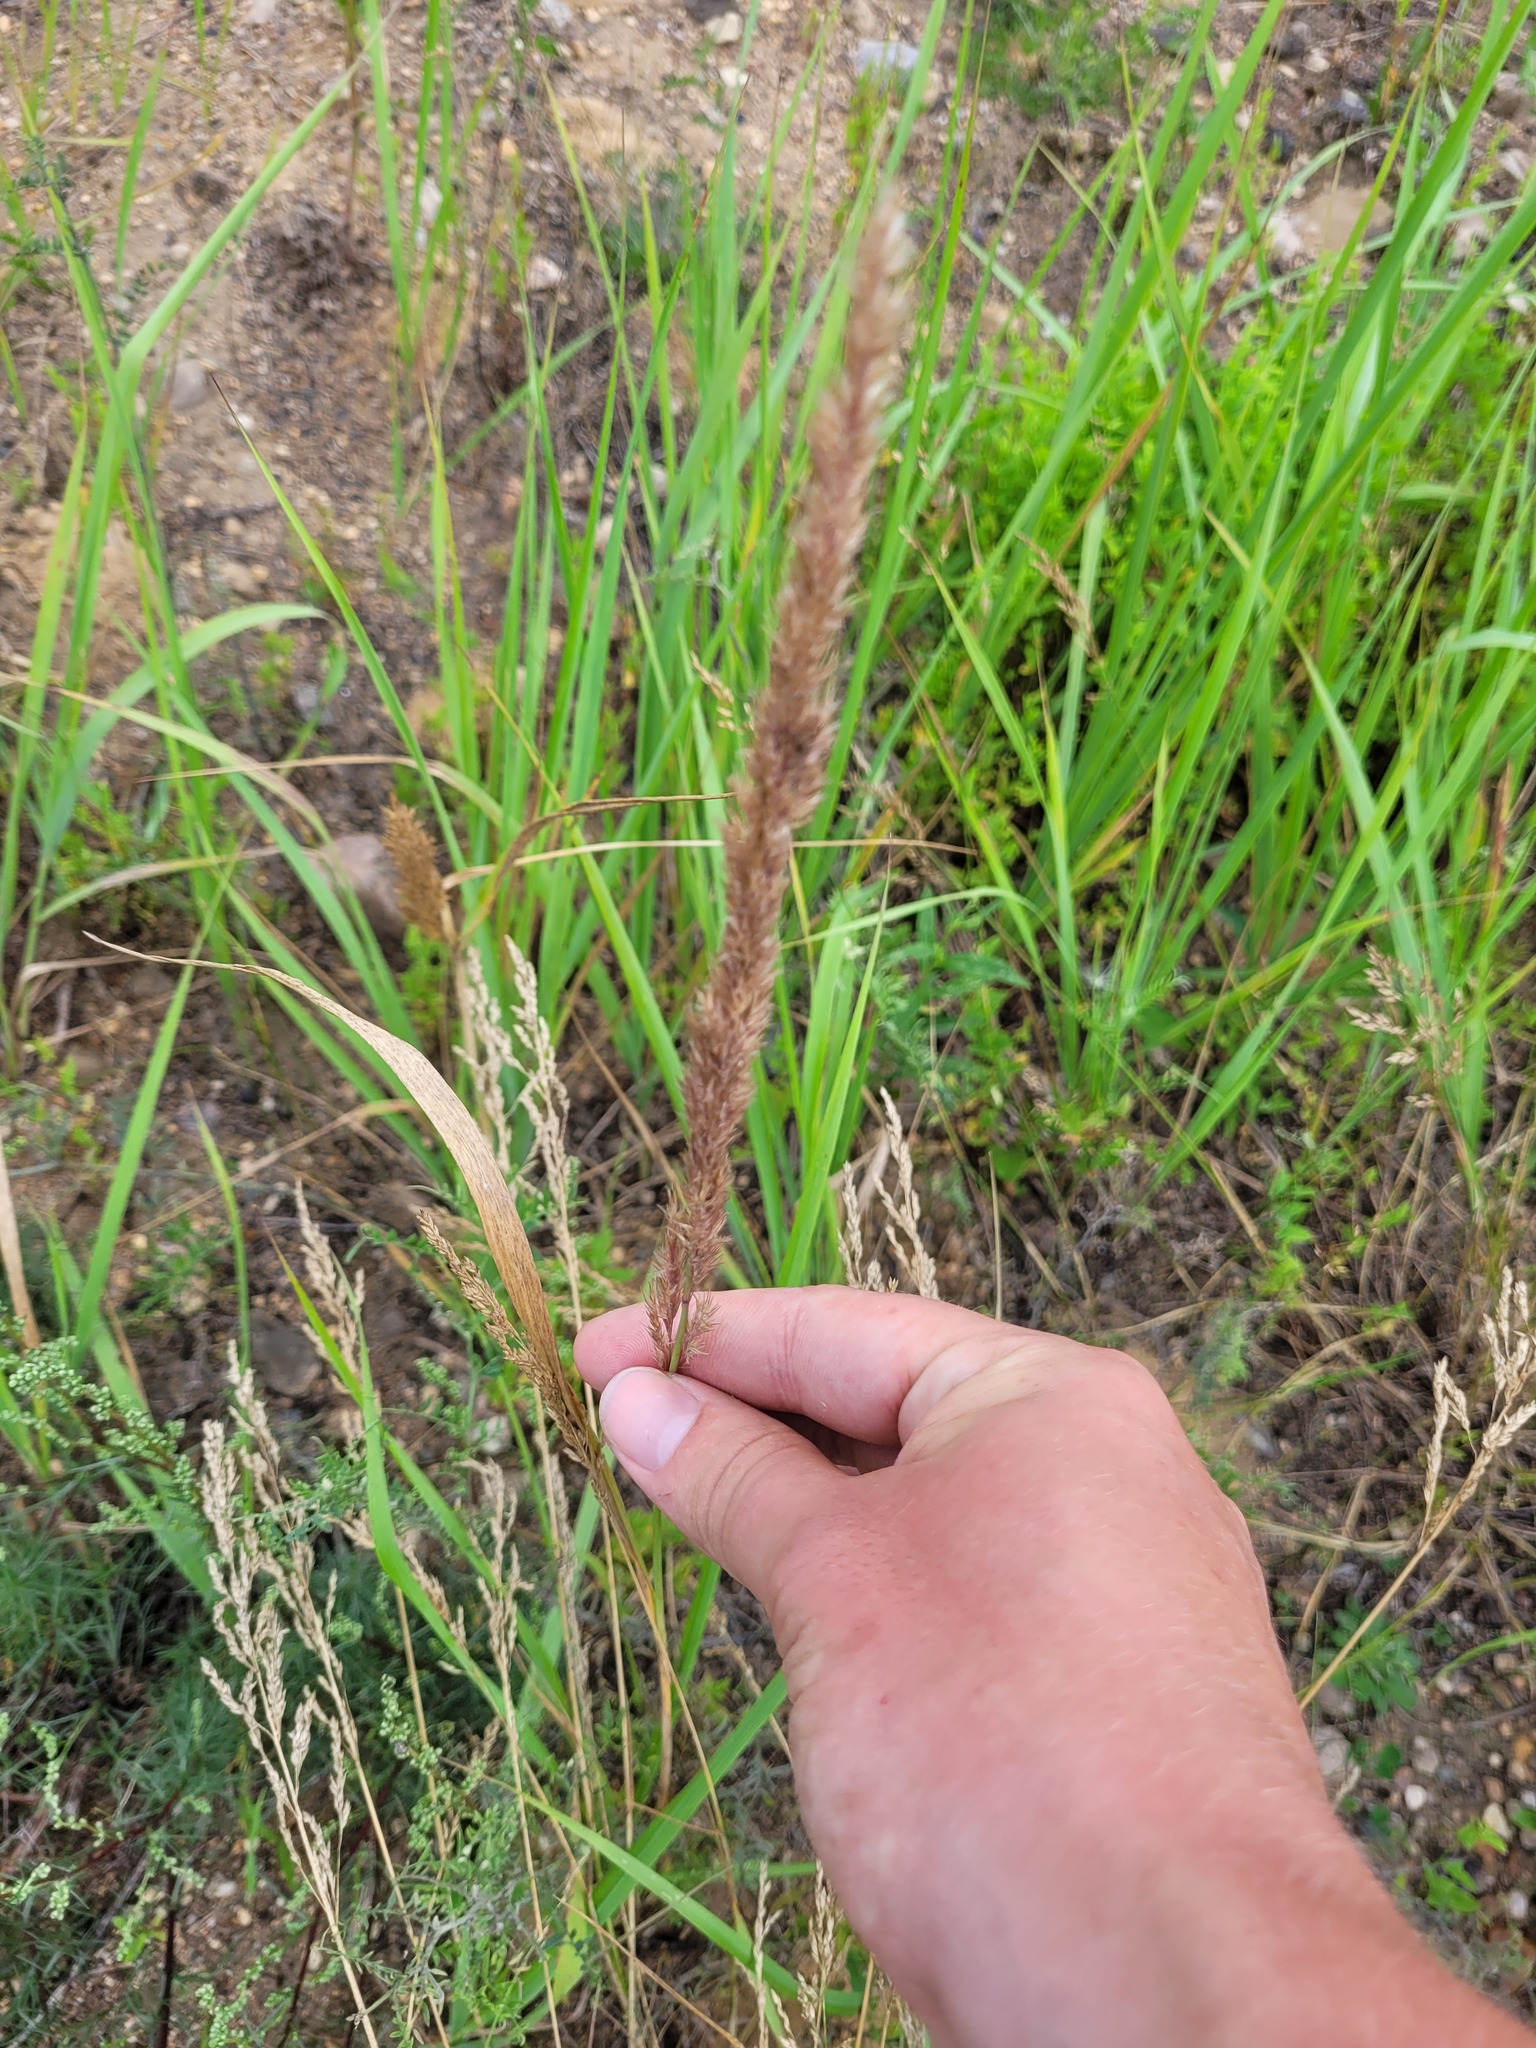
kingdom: Plantae
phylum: Tracheophyta
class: Liliopsida
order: Poales
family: Poaceae
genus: Calamagrostis
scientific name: Calamagrostis epigejos
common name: Wood small-reed
